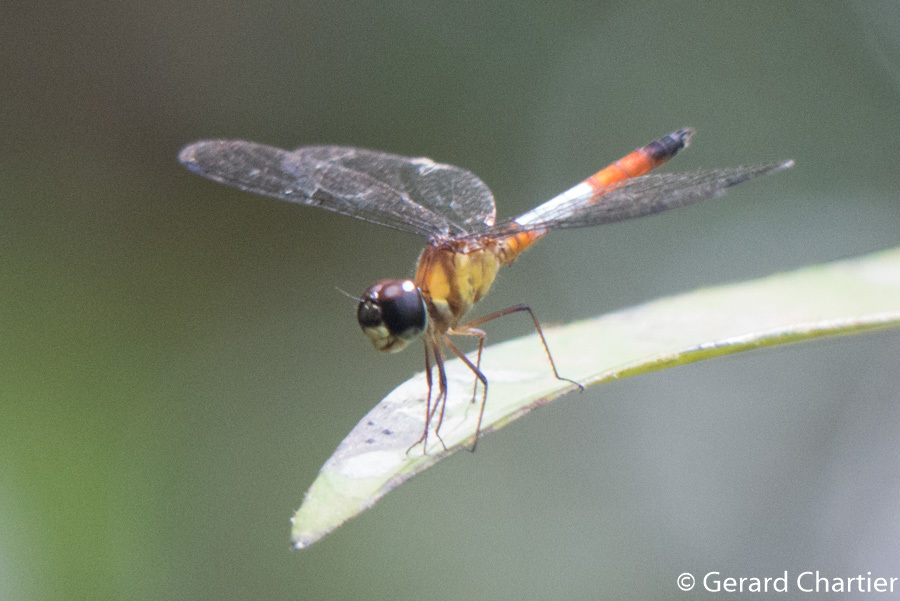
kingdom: Animalia
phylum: Arthropoda
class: Insecta
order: Odonata
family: Libellulidae
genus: Brachygonia
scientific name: Brachygonia oculata
